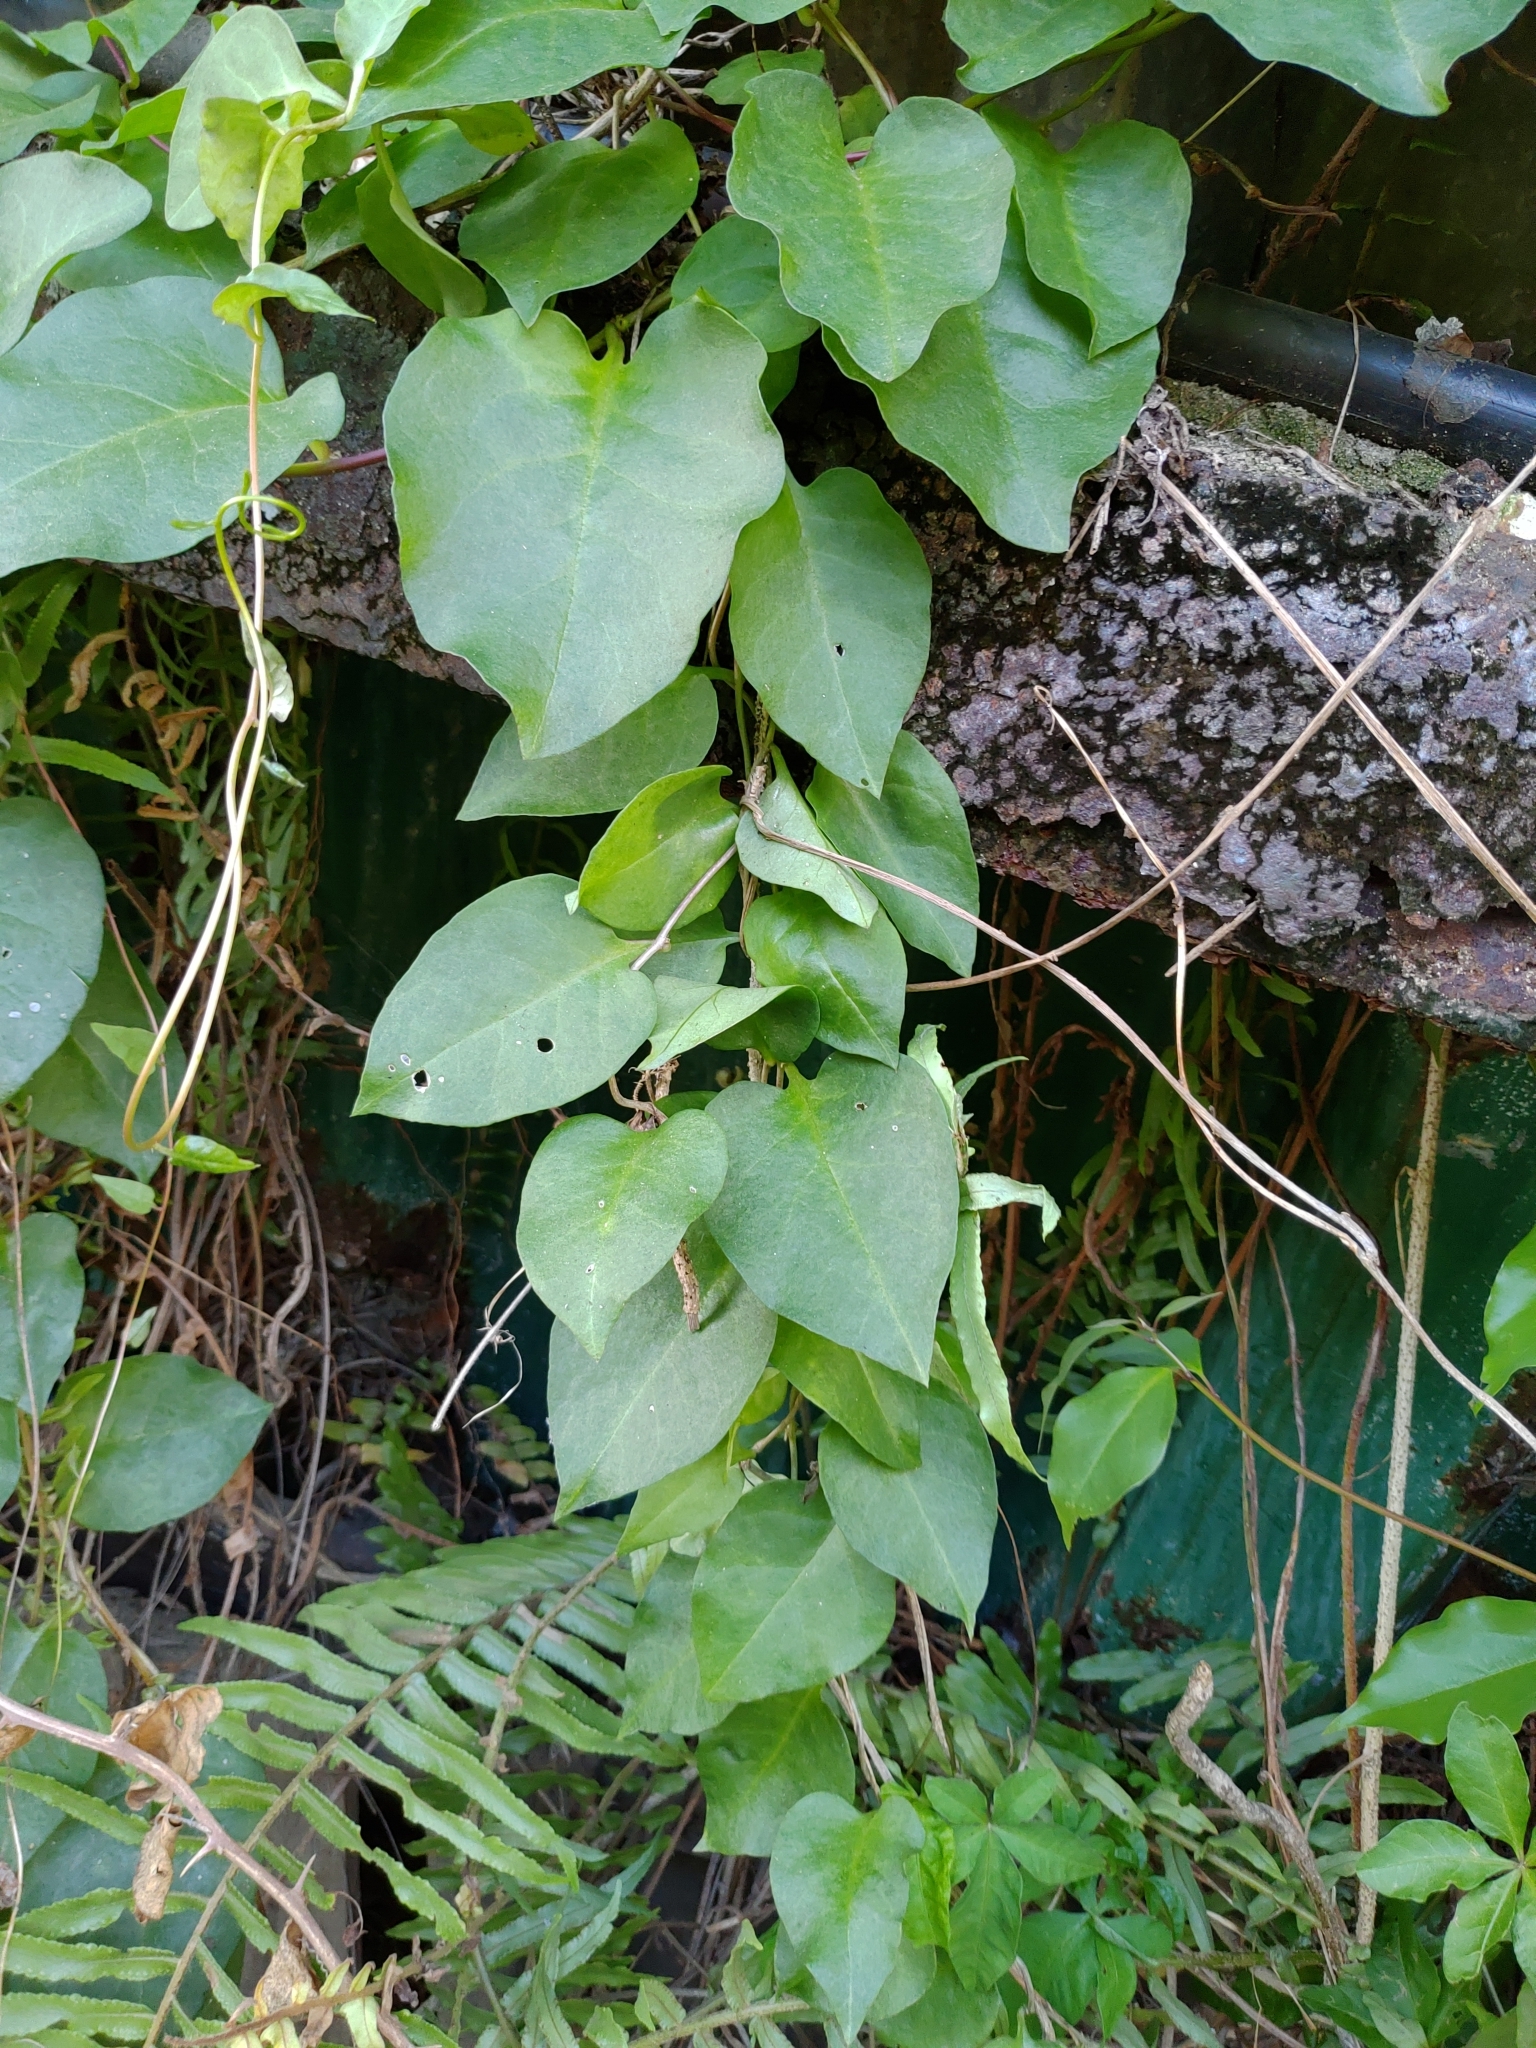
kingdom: Plantae
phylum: Tracheophyta
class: Magnoliopsida
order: Caryophyllales
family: Basellaceae
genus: Anredera
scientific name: Anredera cordifolia
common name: Heartleaf madeiravine
